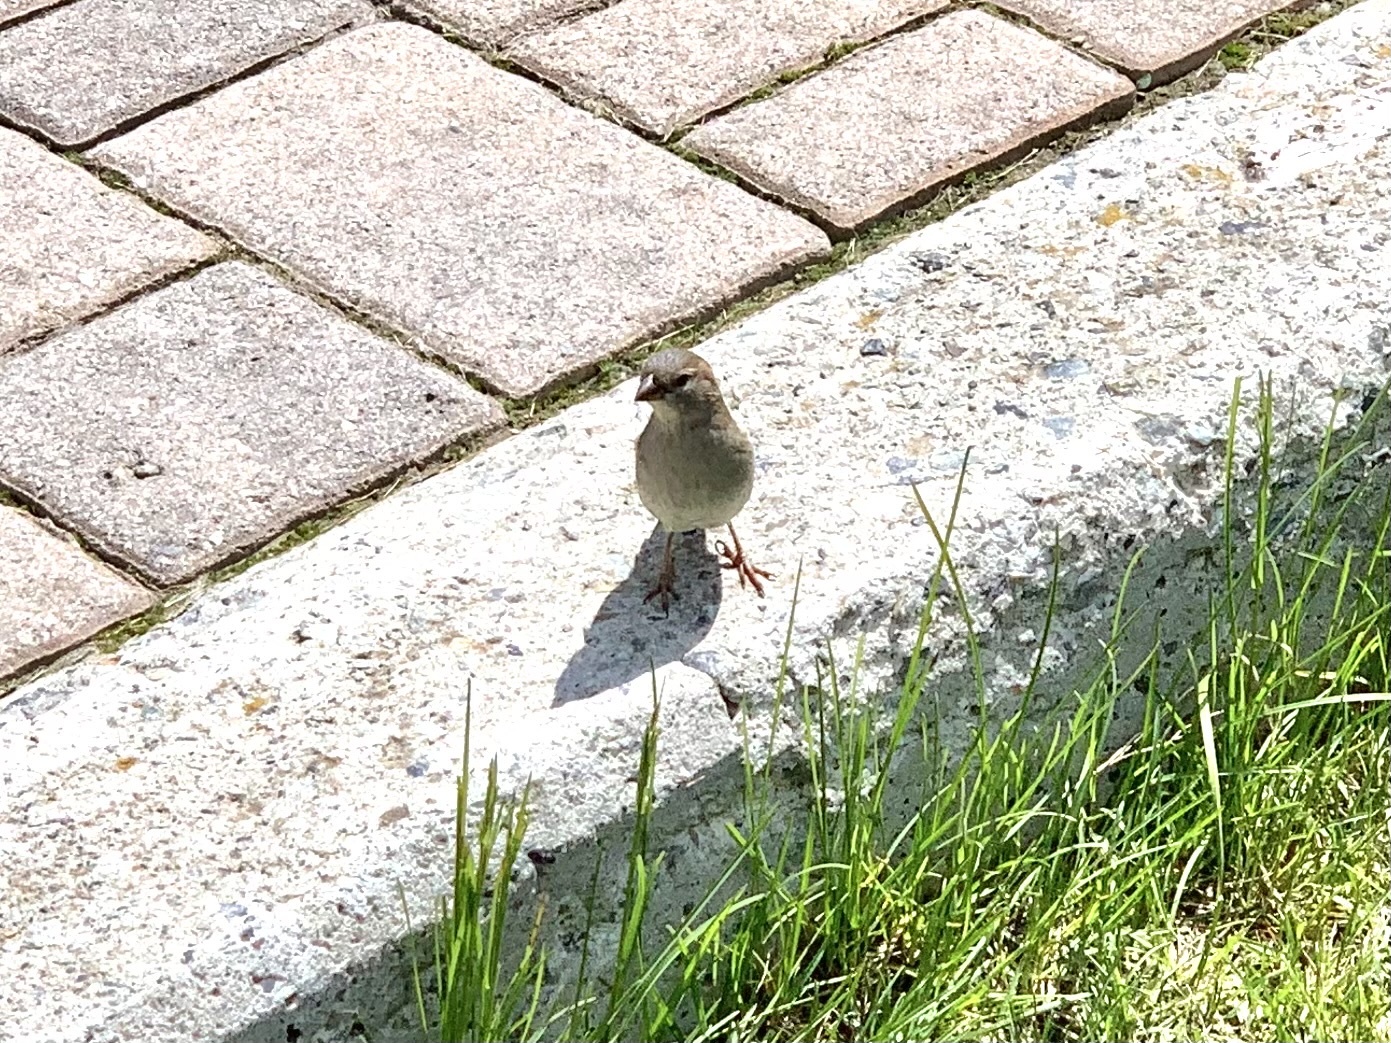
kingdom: Animalia
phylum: Chordata
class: Aves
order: Passeriformes
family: Passeridae
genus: Passer
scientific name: Passer
